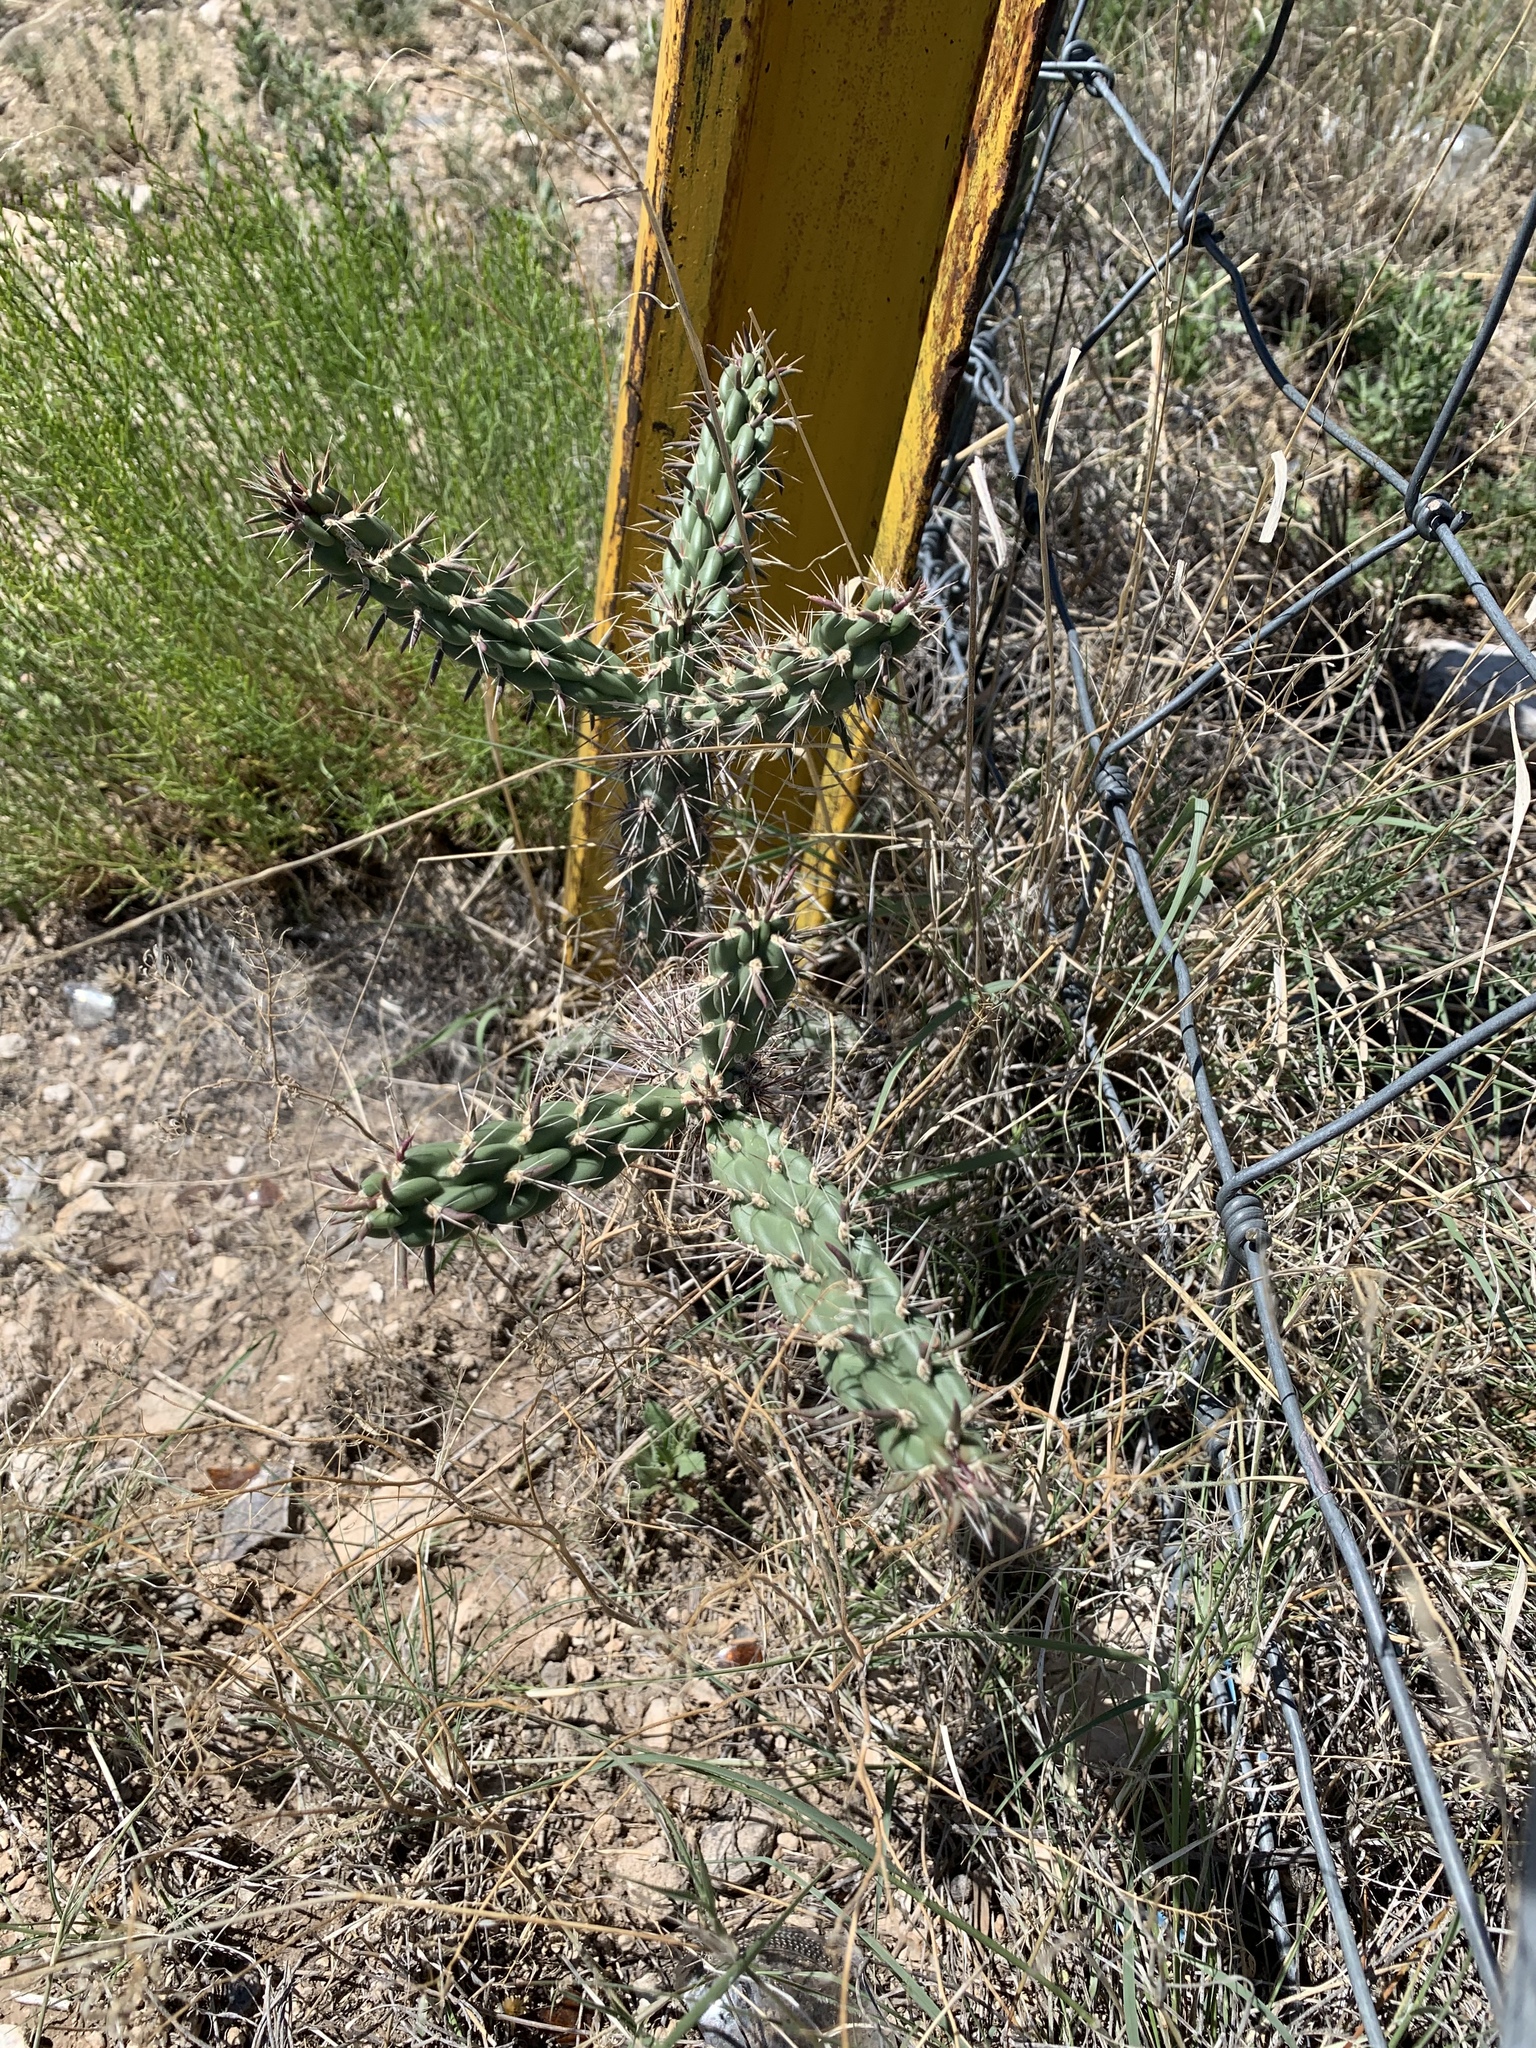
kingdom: Plantae
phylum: Tracheophyta
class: Magnoliopsida
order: Caryophyllales
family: Cactaceae
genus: Cylindropuntia
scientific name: Cylindropuntia imbricata
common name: Candelabrum cactus
